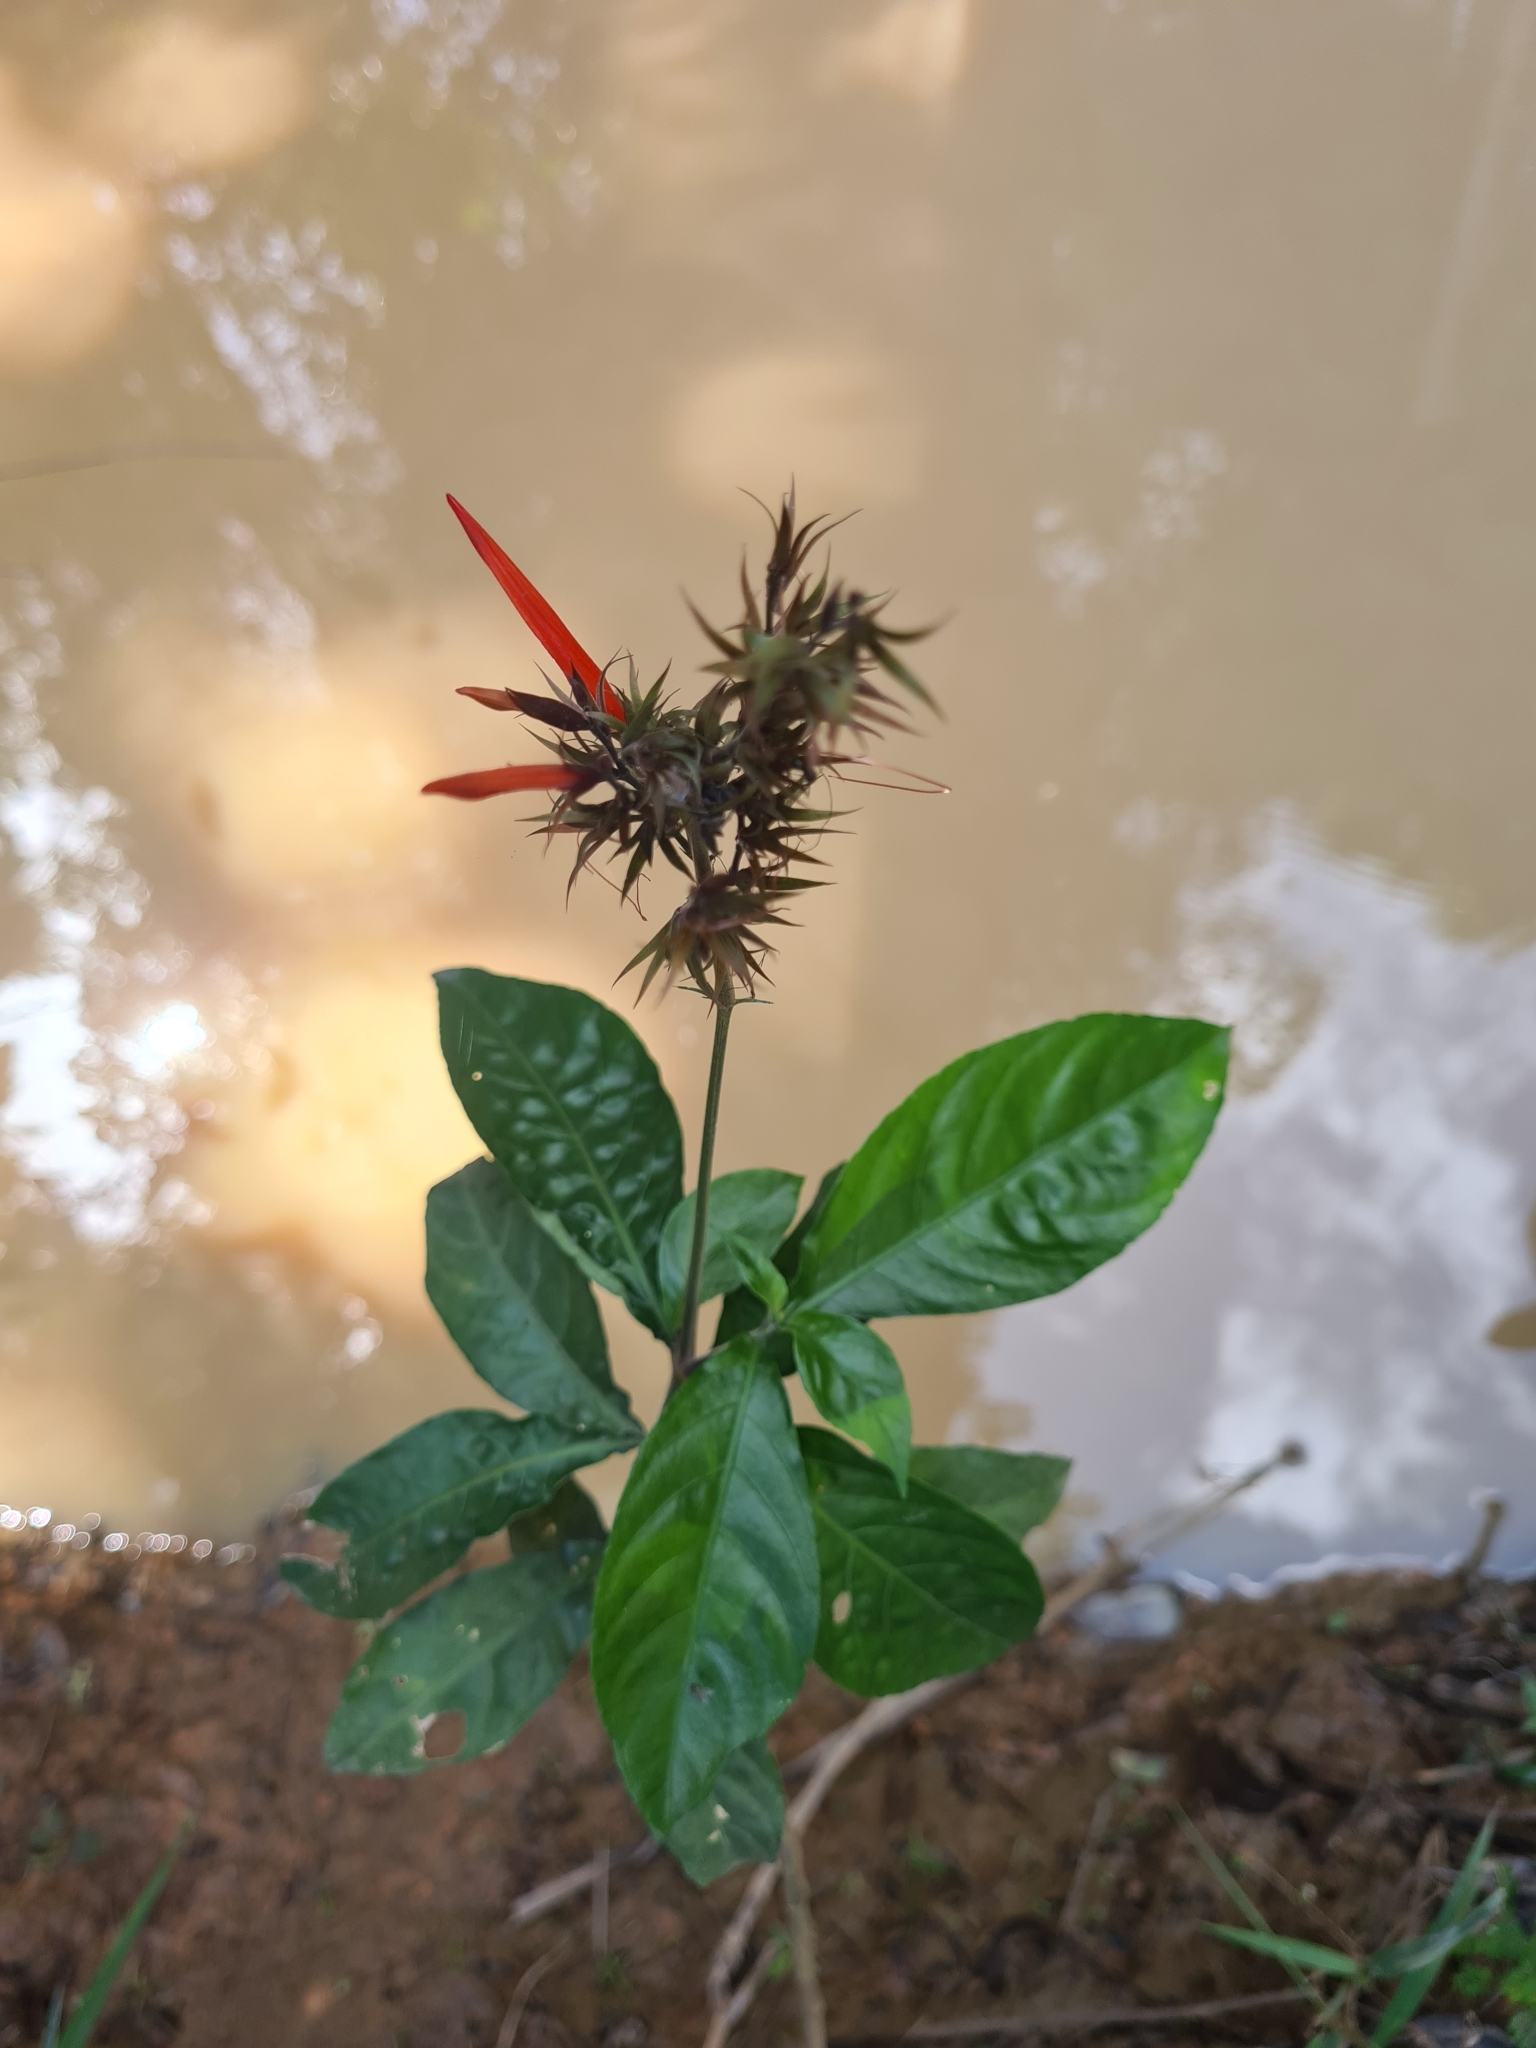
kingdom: Plantae
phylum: Tracheophyta
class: Magnoliopsida
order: Lamiales
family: Acanthaceae
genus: Dianthera
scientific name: Dianthera secunda
